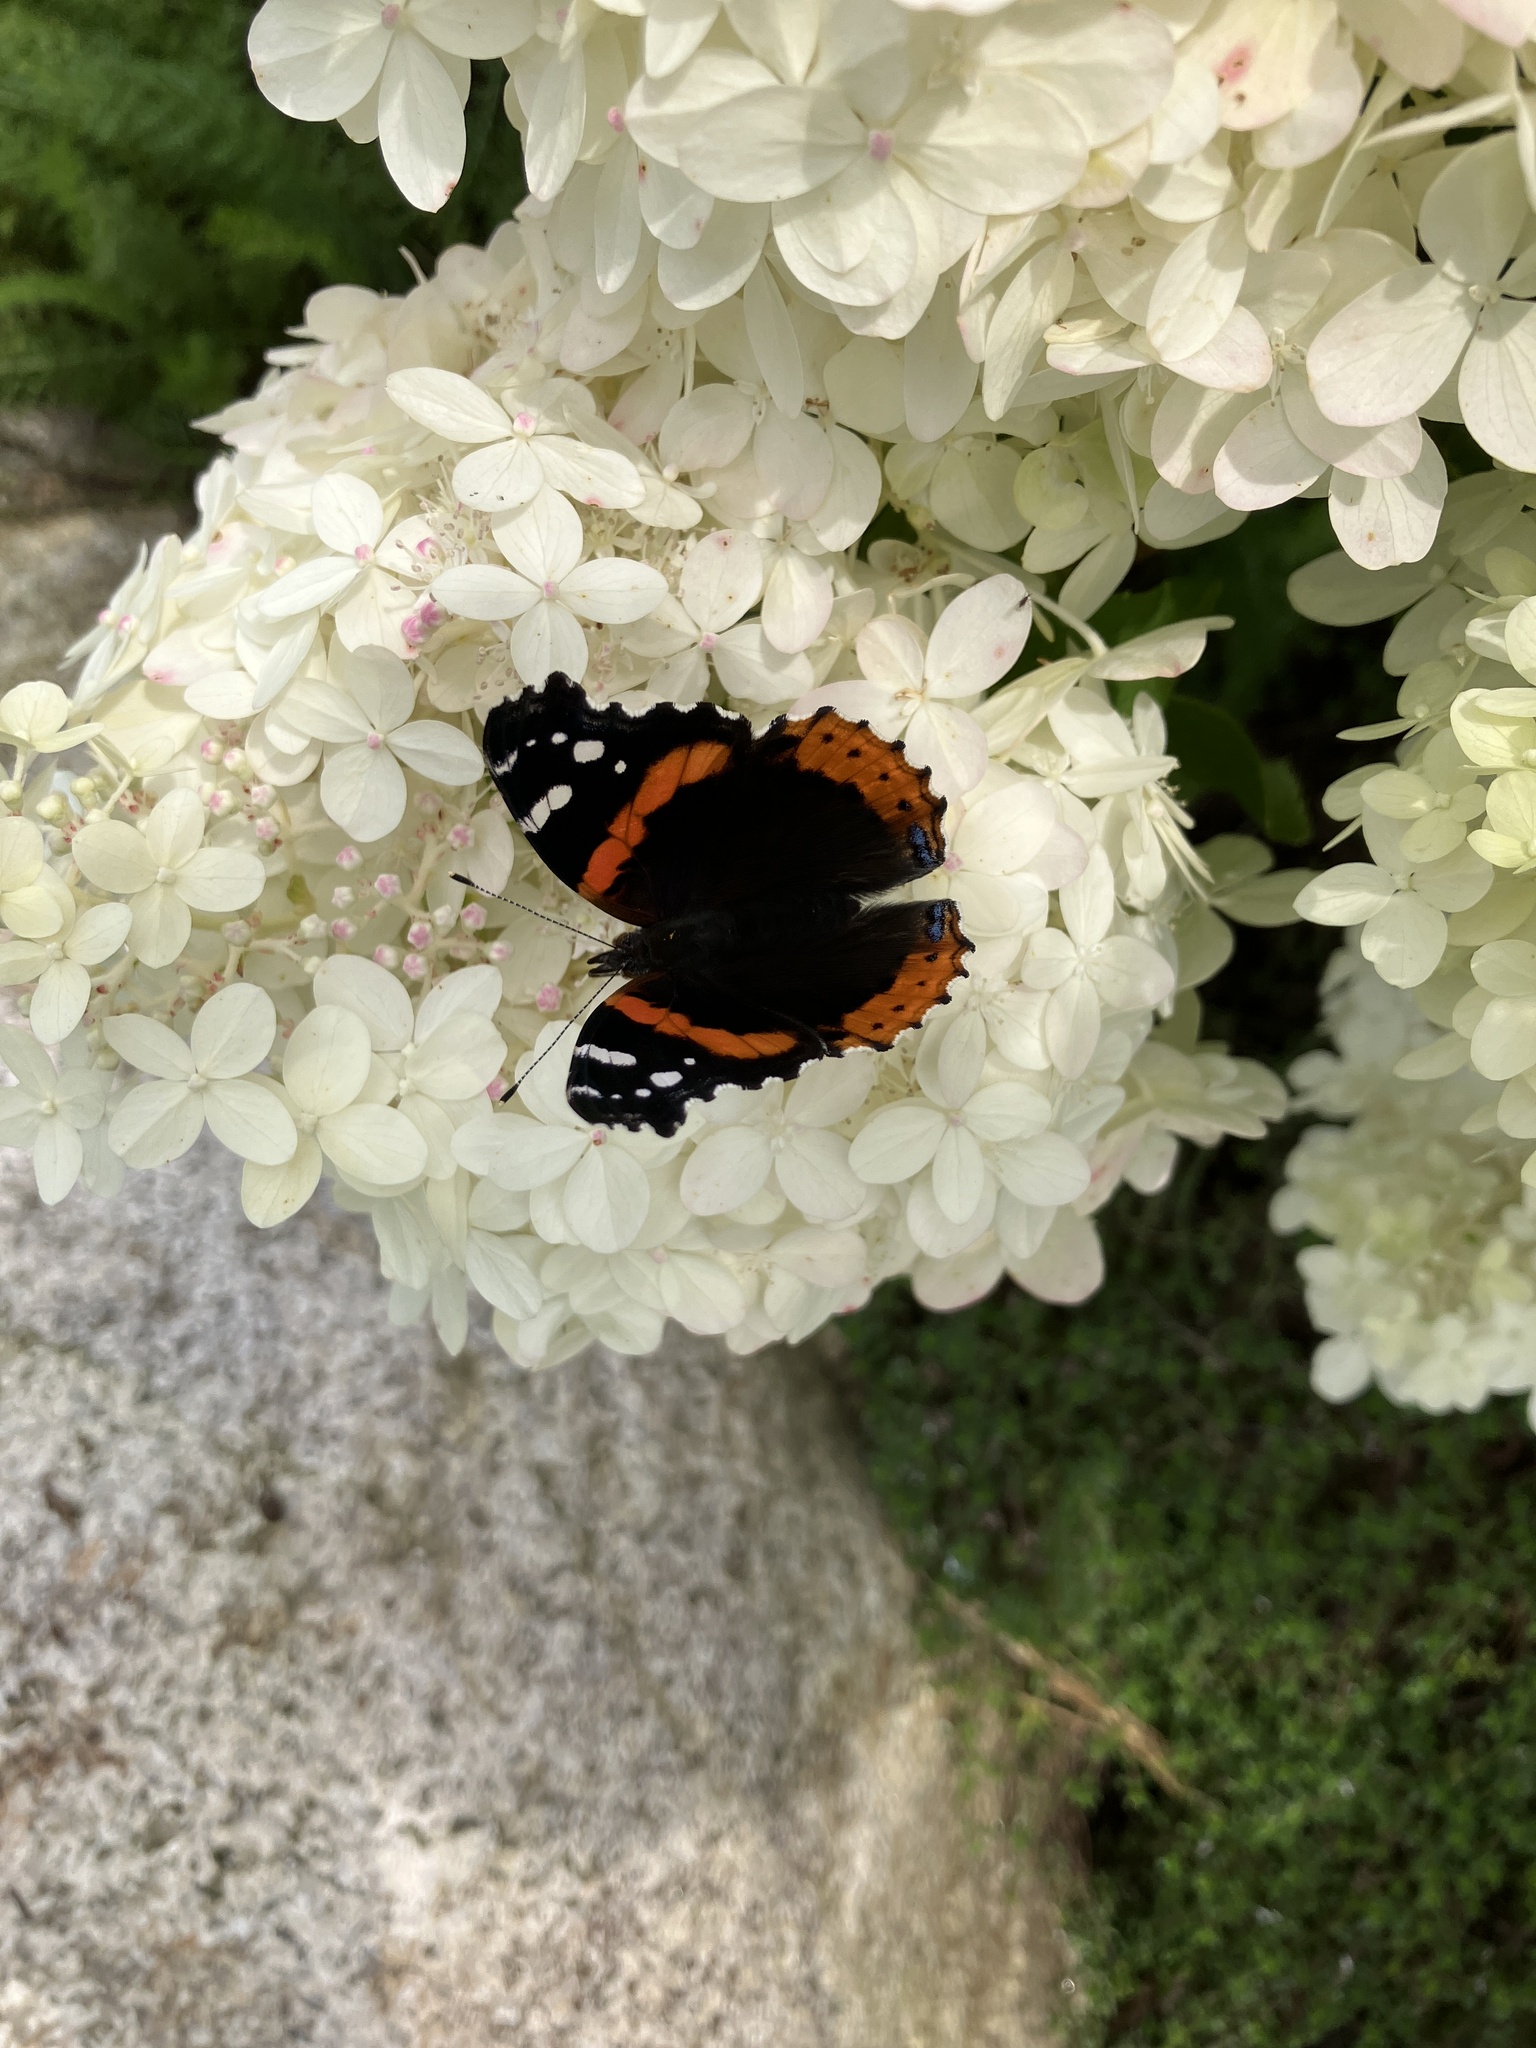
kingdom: Animalia
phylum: Arthropoda
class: Insecta
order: Lepidoptera
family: Nymphalidae
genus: Vanessa
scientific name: Vanessa atalanta
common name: Red admiral
